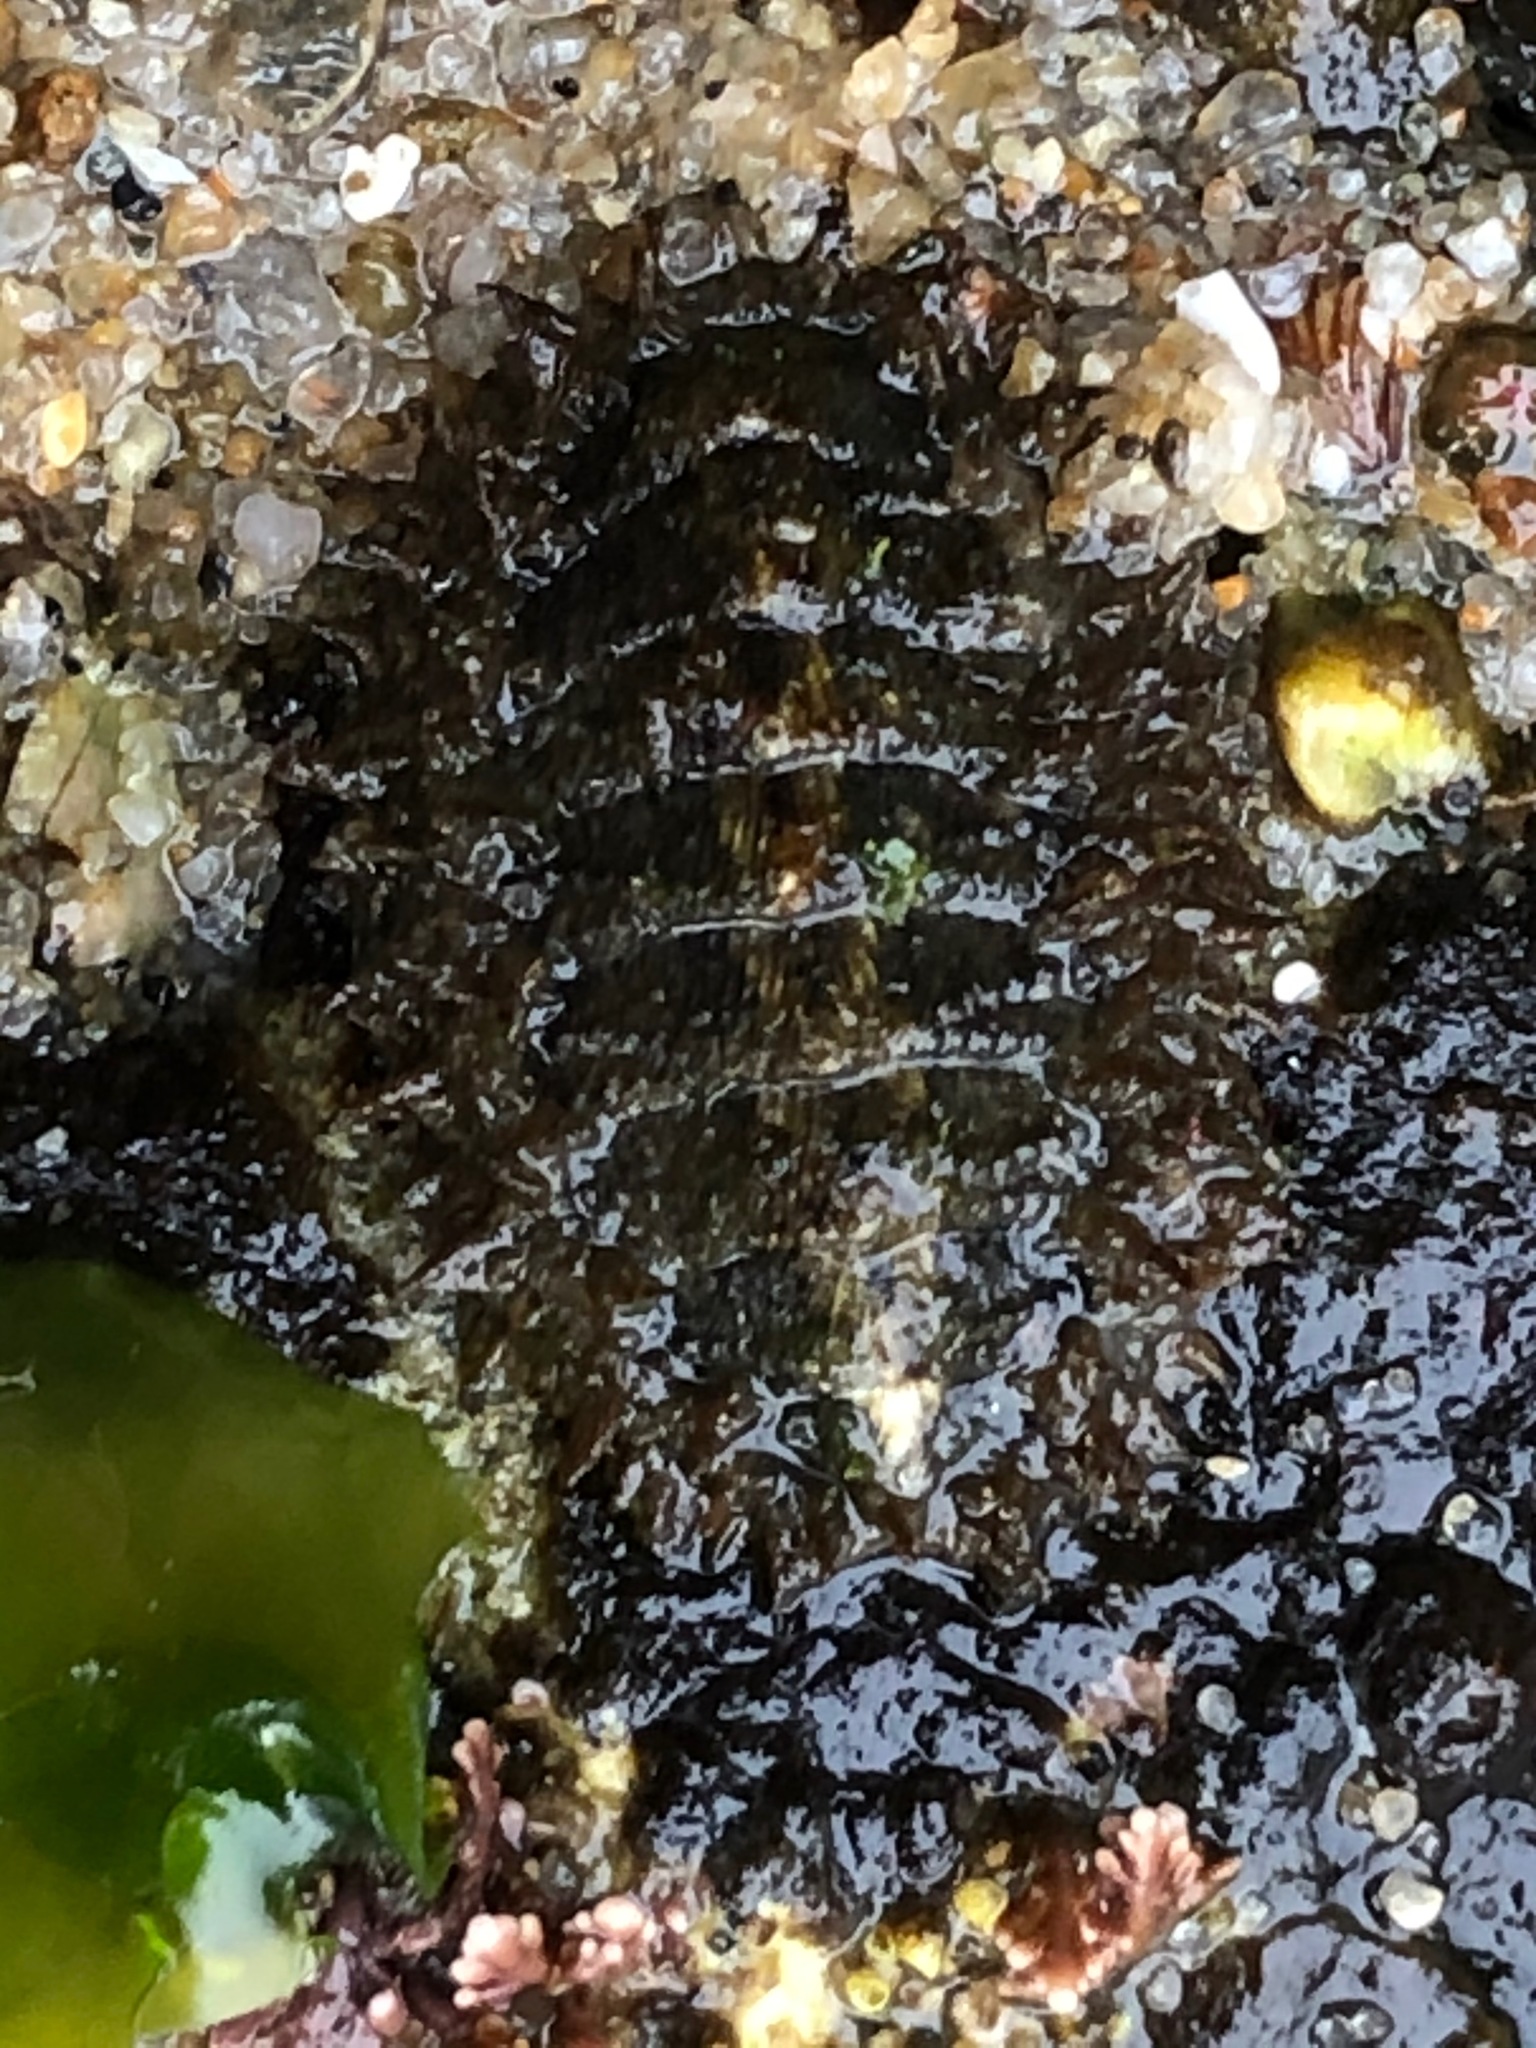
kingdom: Animalia
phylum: Mollusca
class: Polyplacophora
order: Chitonida
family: Mopaliidae
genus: Mopalia
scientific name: Mopalia muscosa
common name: Mossy chiton
